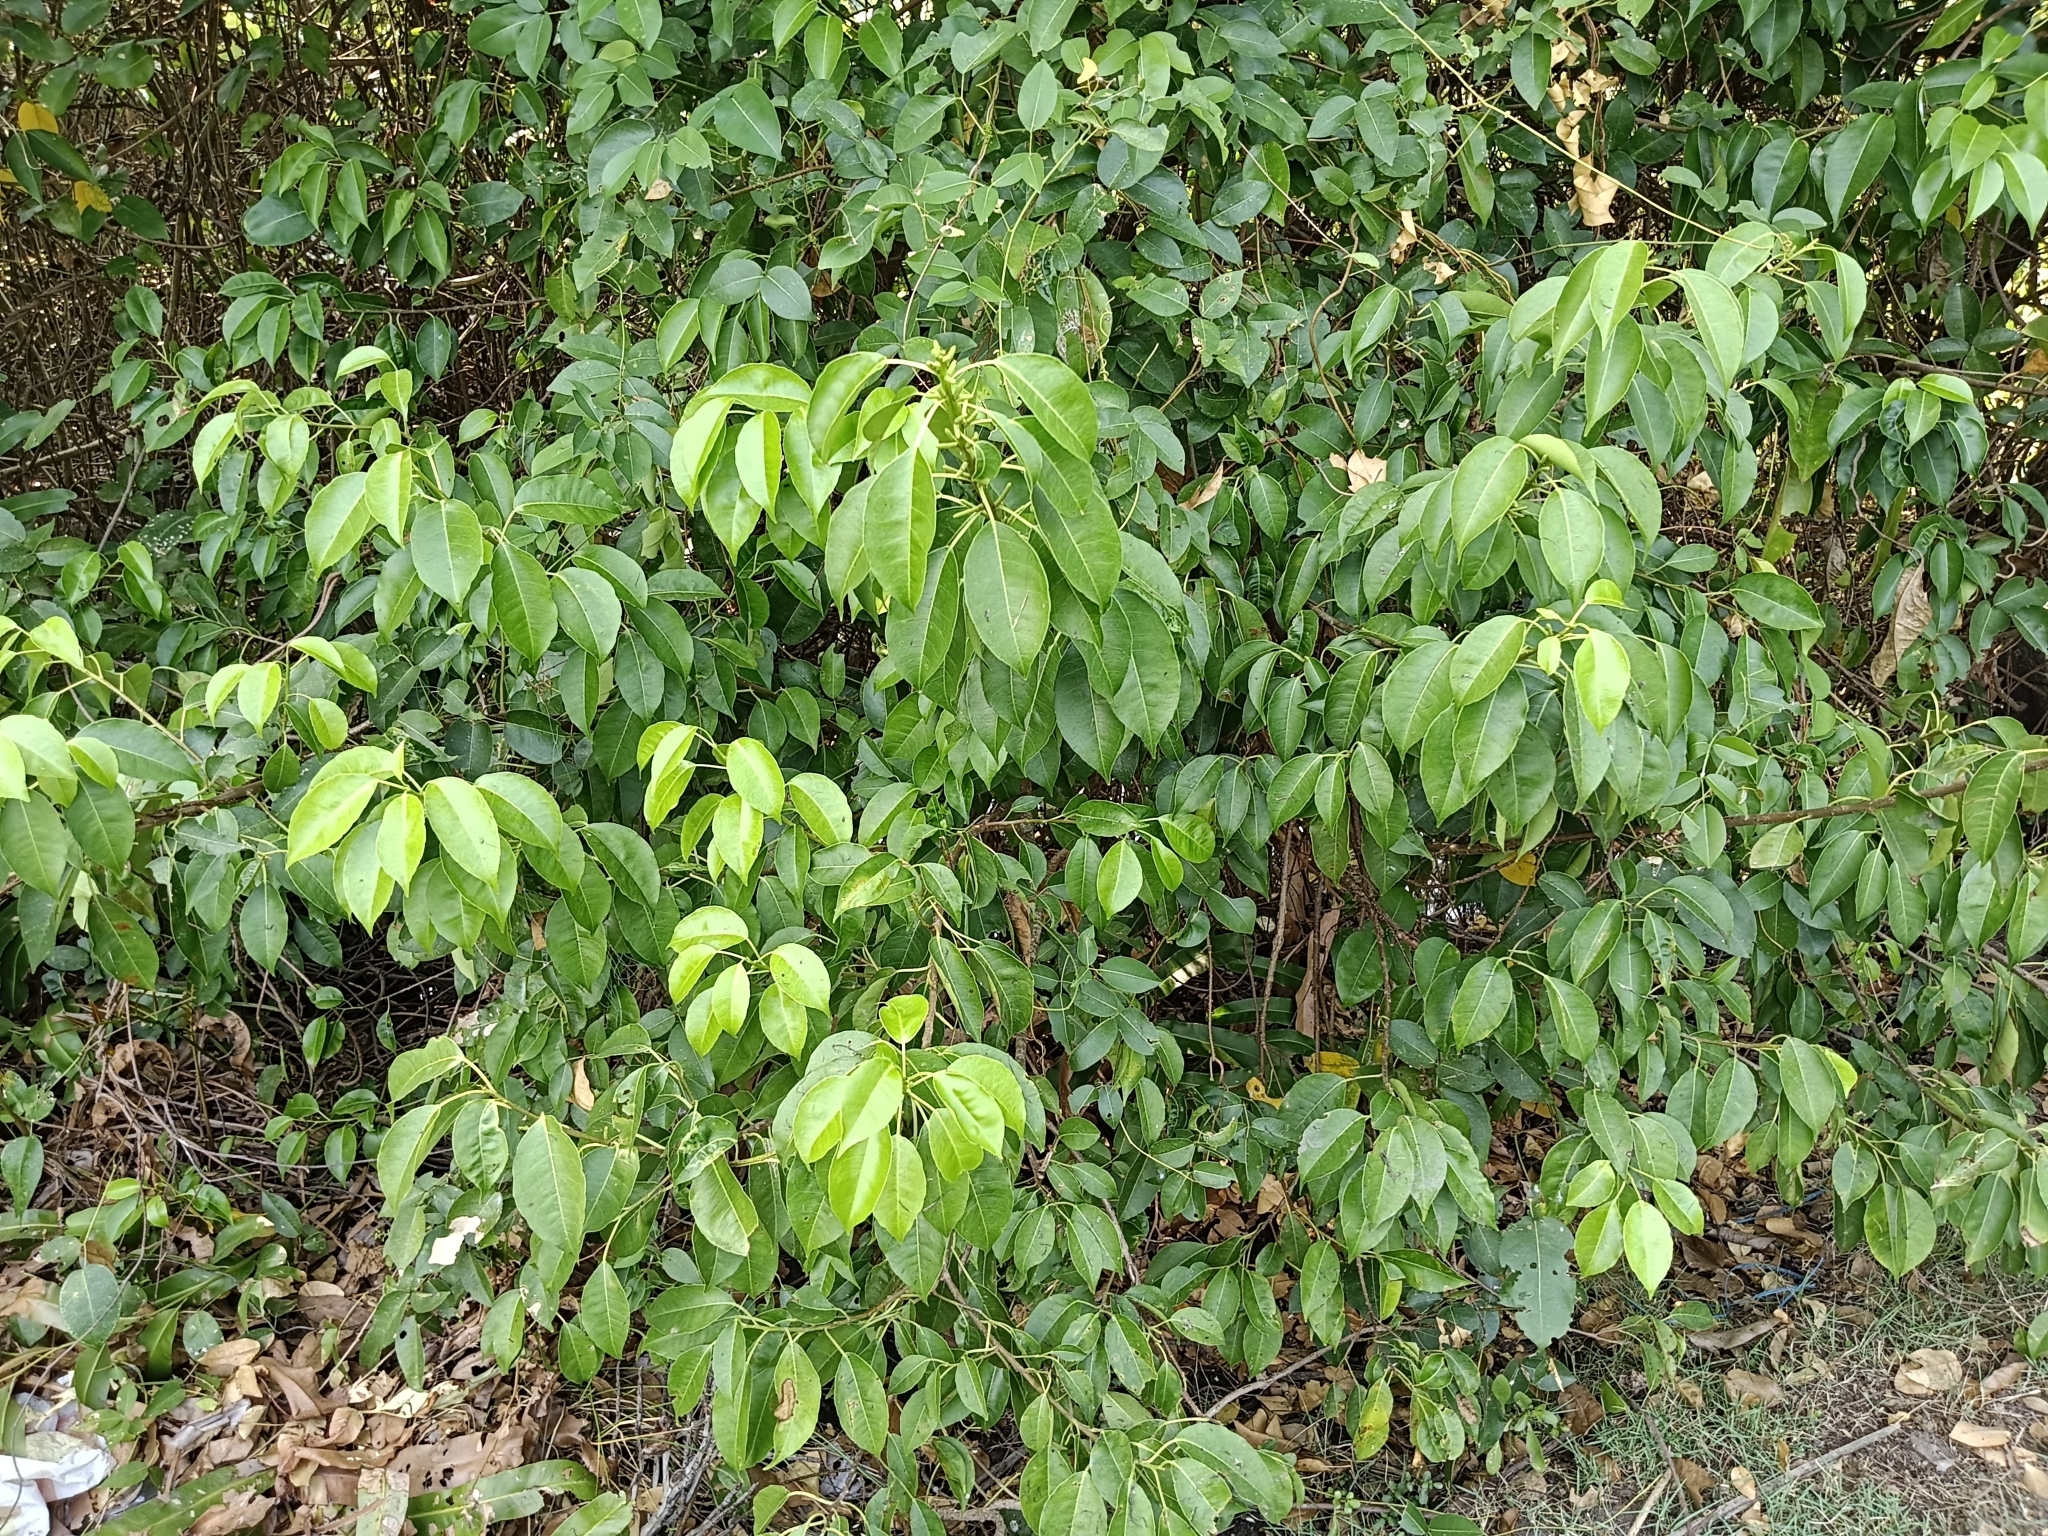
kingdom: Plantae
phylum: Tracheophyta
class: Magnoliopsida
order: Malpighiales
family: Euphorbiaceae
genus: Excoecaria
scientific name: Excoecaria agallocha
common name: River poisontree
